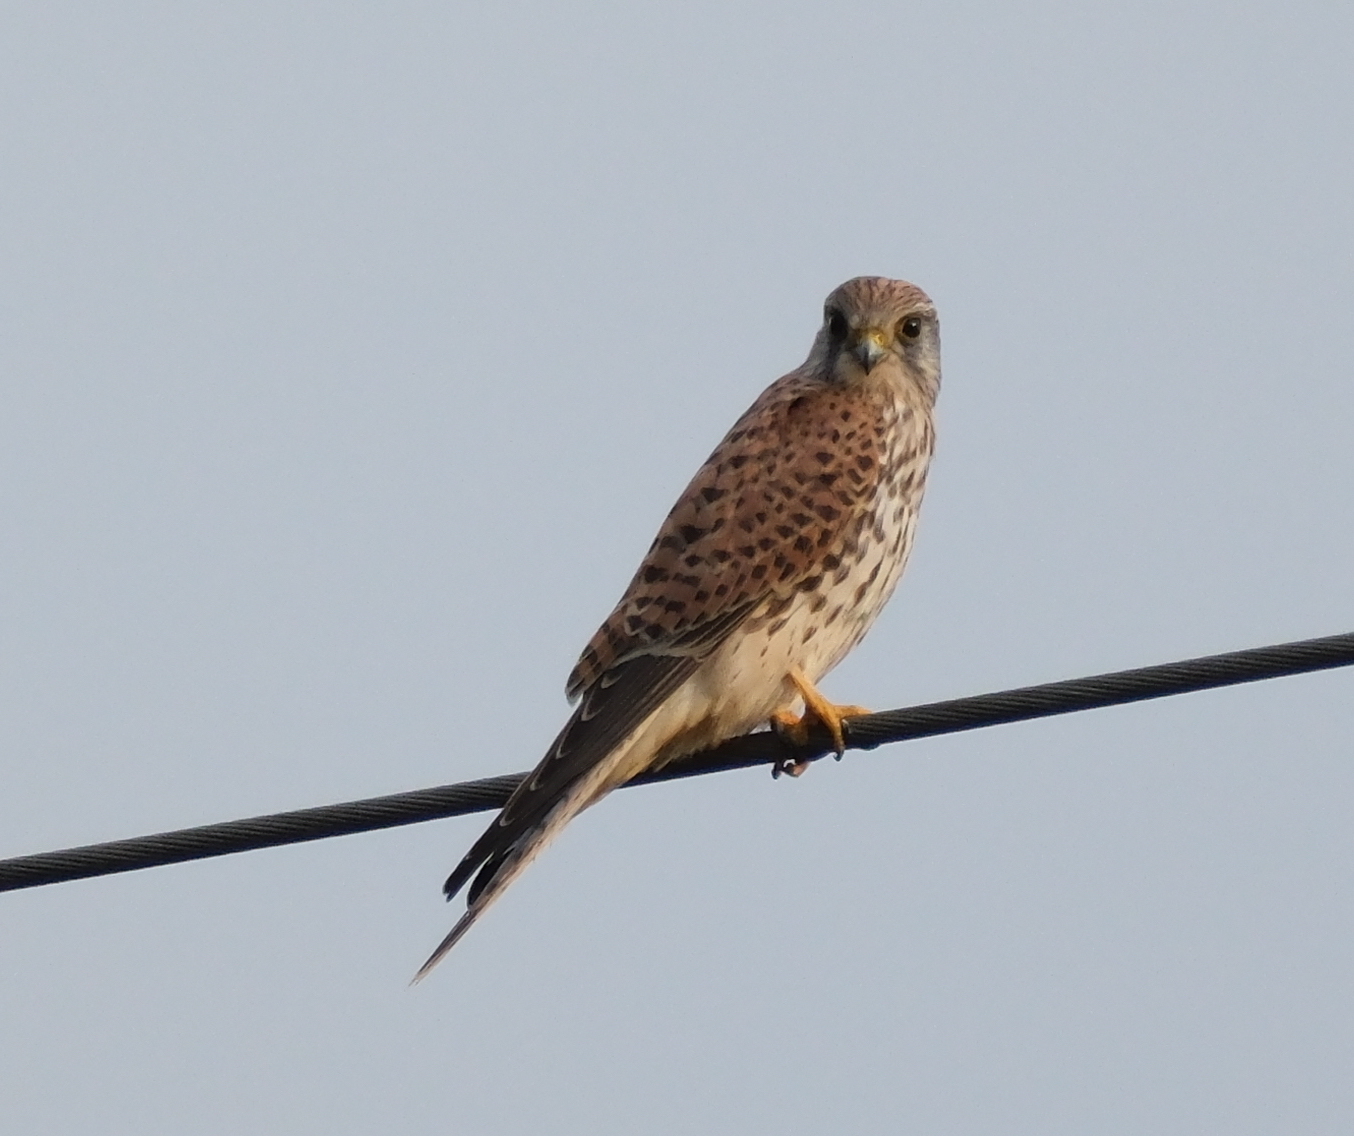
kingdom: Animalia
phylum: Chordata
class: Aves
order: Falconiformes
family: Falconidae
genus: Falco
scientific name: Falco tinnunculus
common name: Common kestrel
